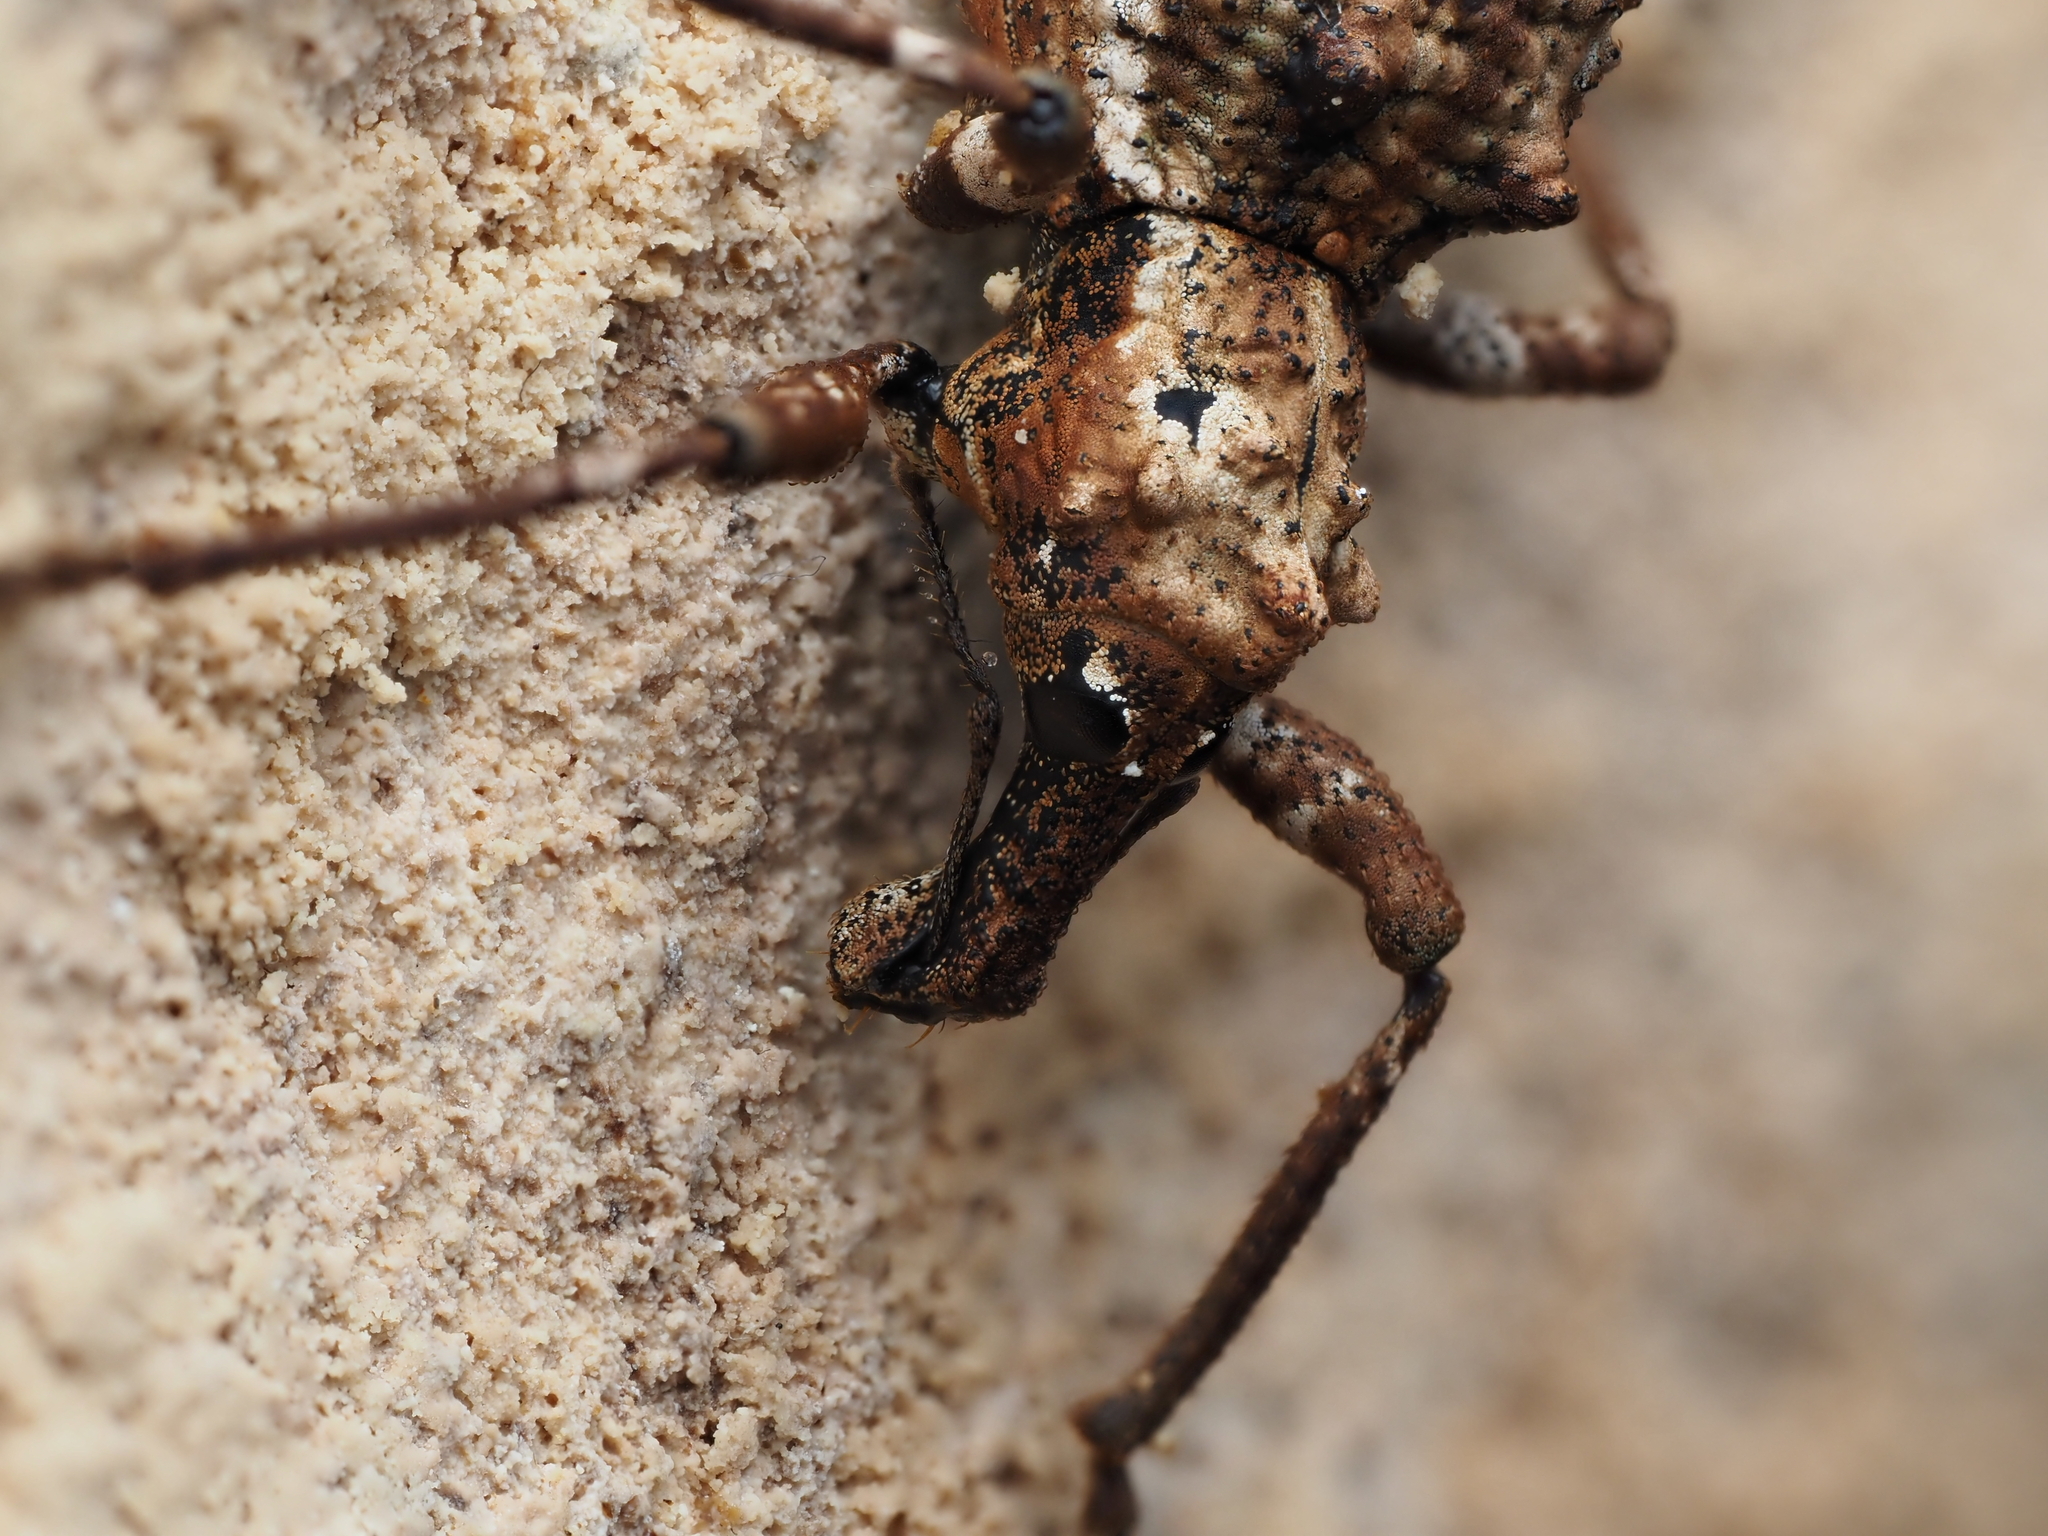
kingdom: Animalia
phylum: Arthropoda
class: Insecta
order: Coleoptera
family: Curculionidae
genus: Anagotus
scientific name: Anagotus helmsi
